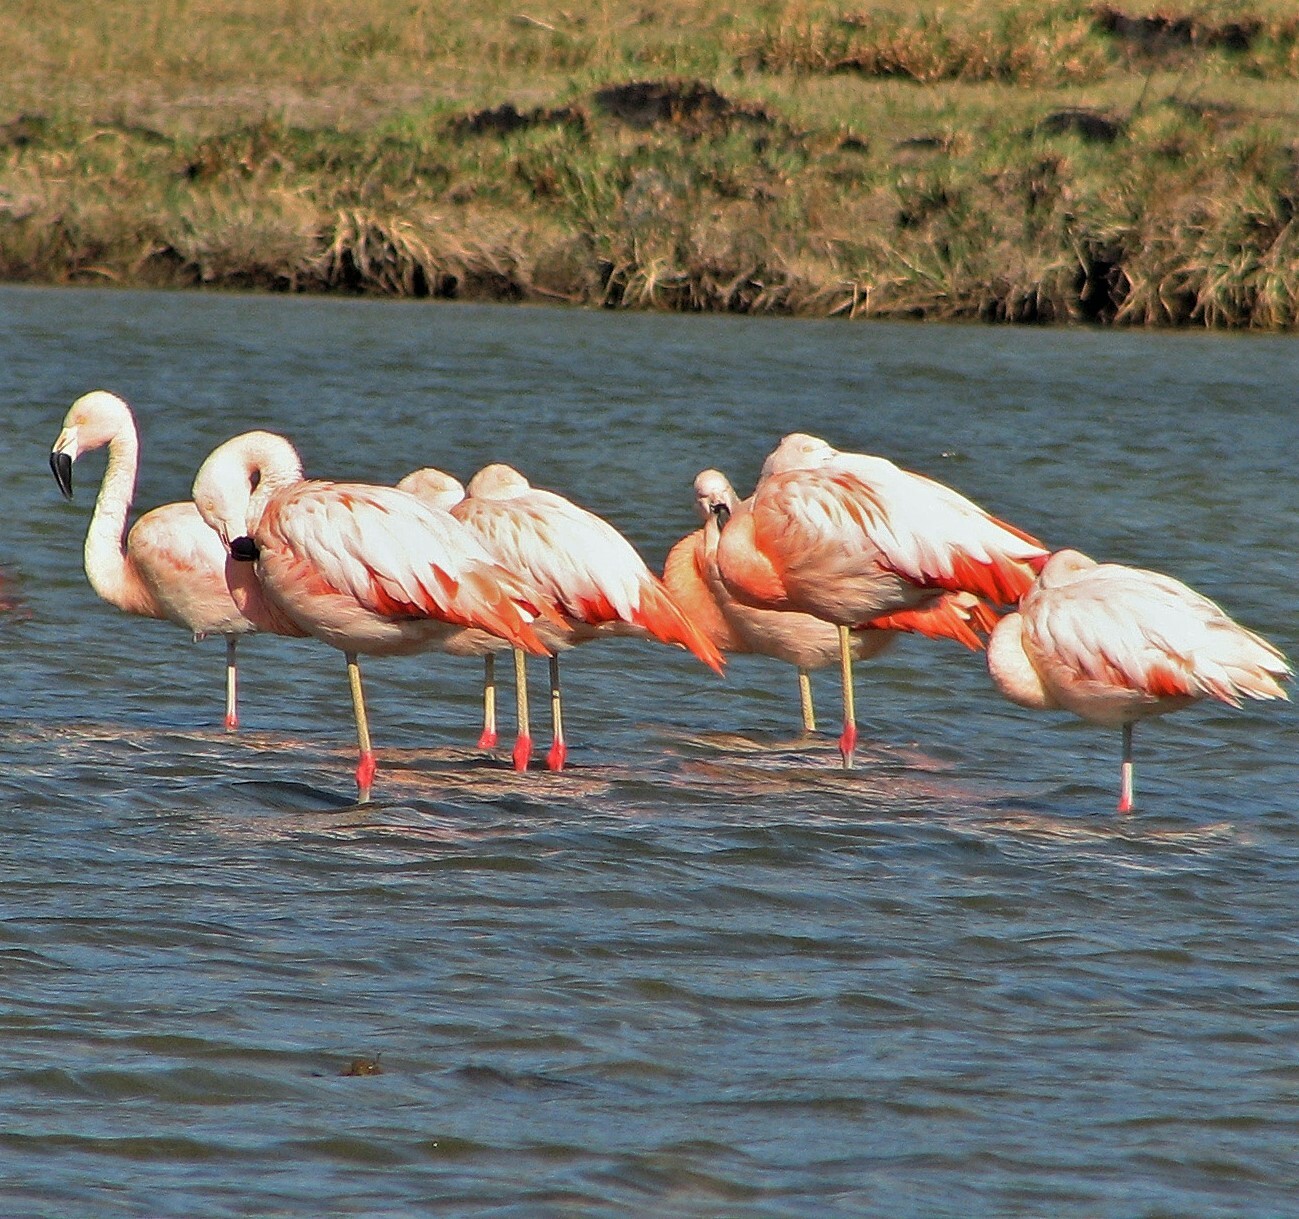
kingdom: Animalia
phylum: Chordata
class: Aves
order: Phoenicopteriformes
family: Phoenicopteridae
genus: Phoenicopterus
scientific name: Phoenicopterus chilensis
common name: Chilean flamingo
